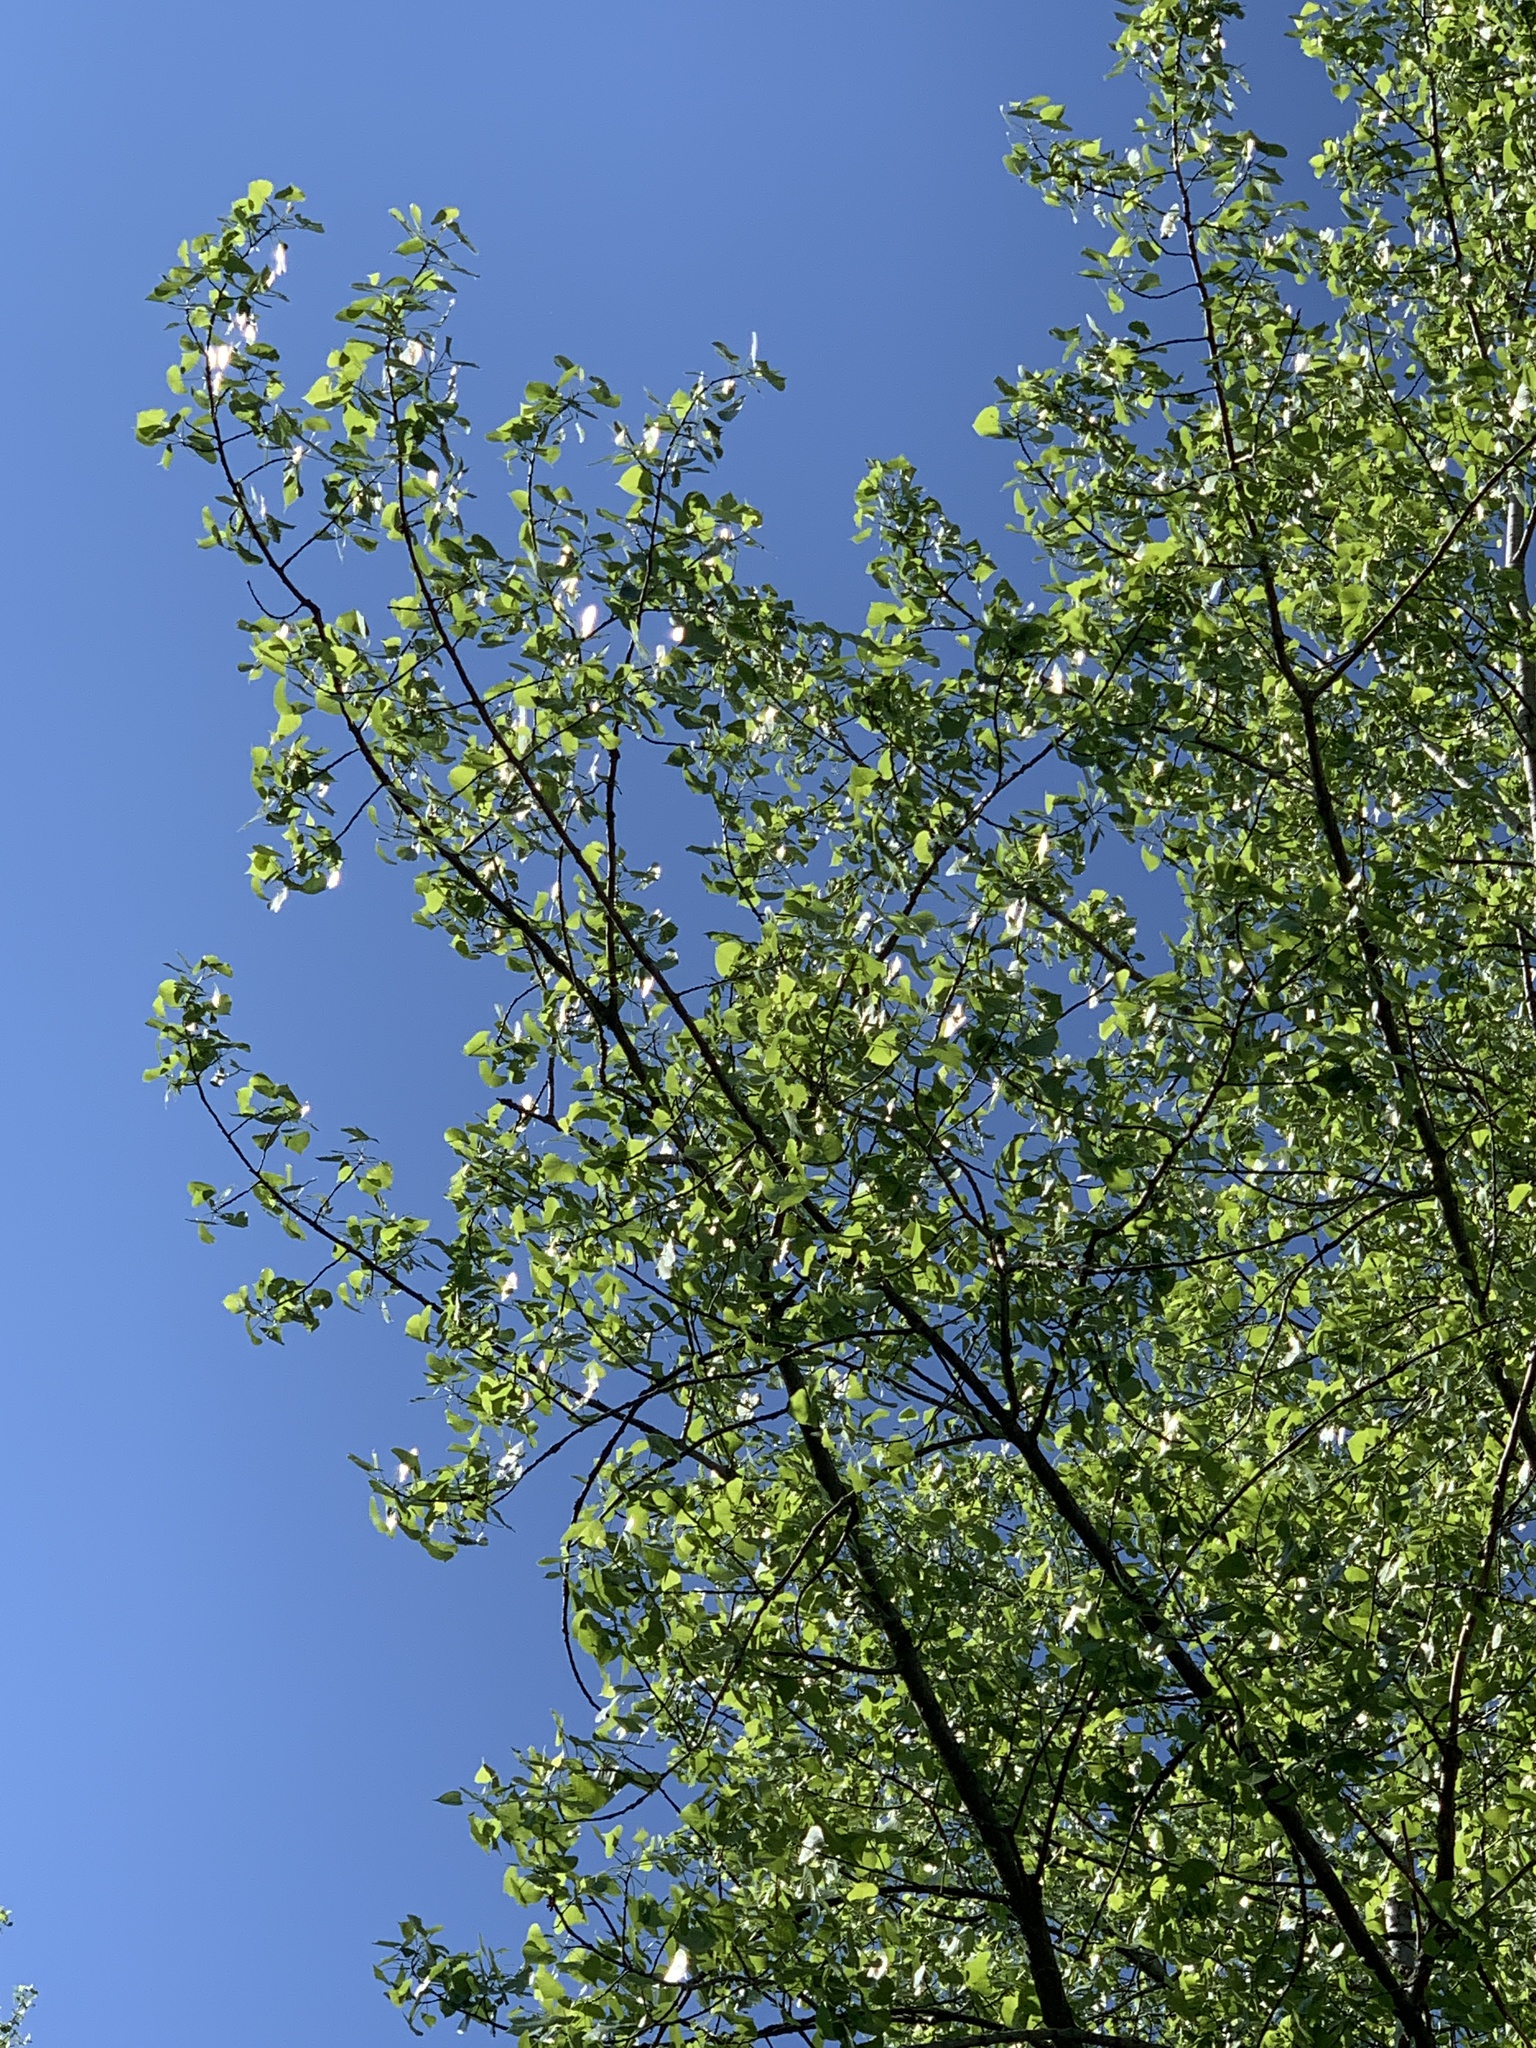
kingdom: Plantae
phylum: Tracheophyta
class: Magnoliopsida
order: Malpighiales
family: Salicaceae
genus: Populus
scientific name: Populus deltoides
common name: Eastern cottonwood
